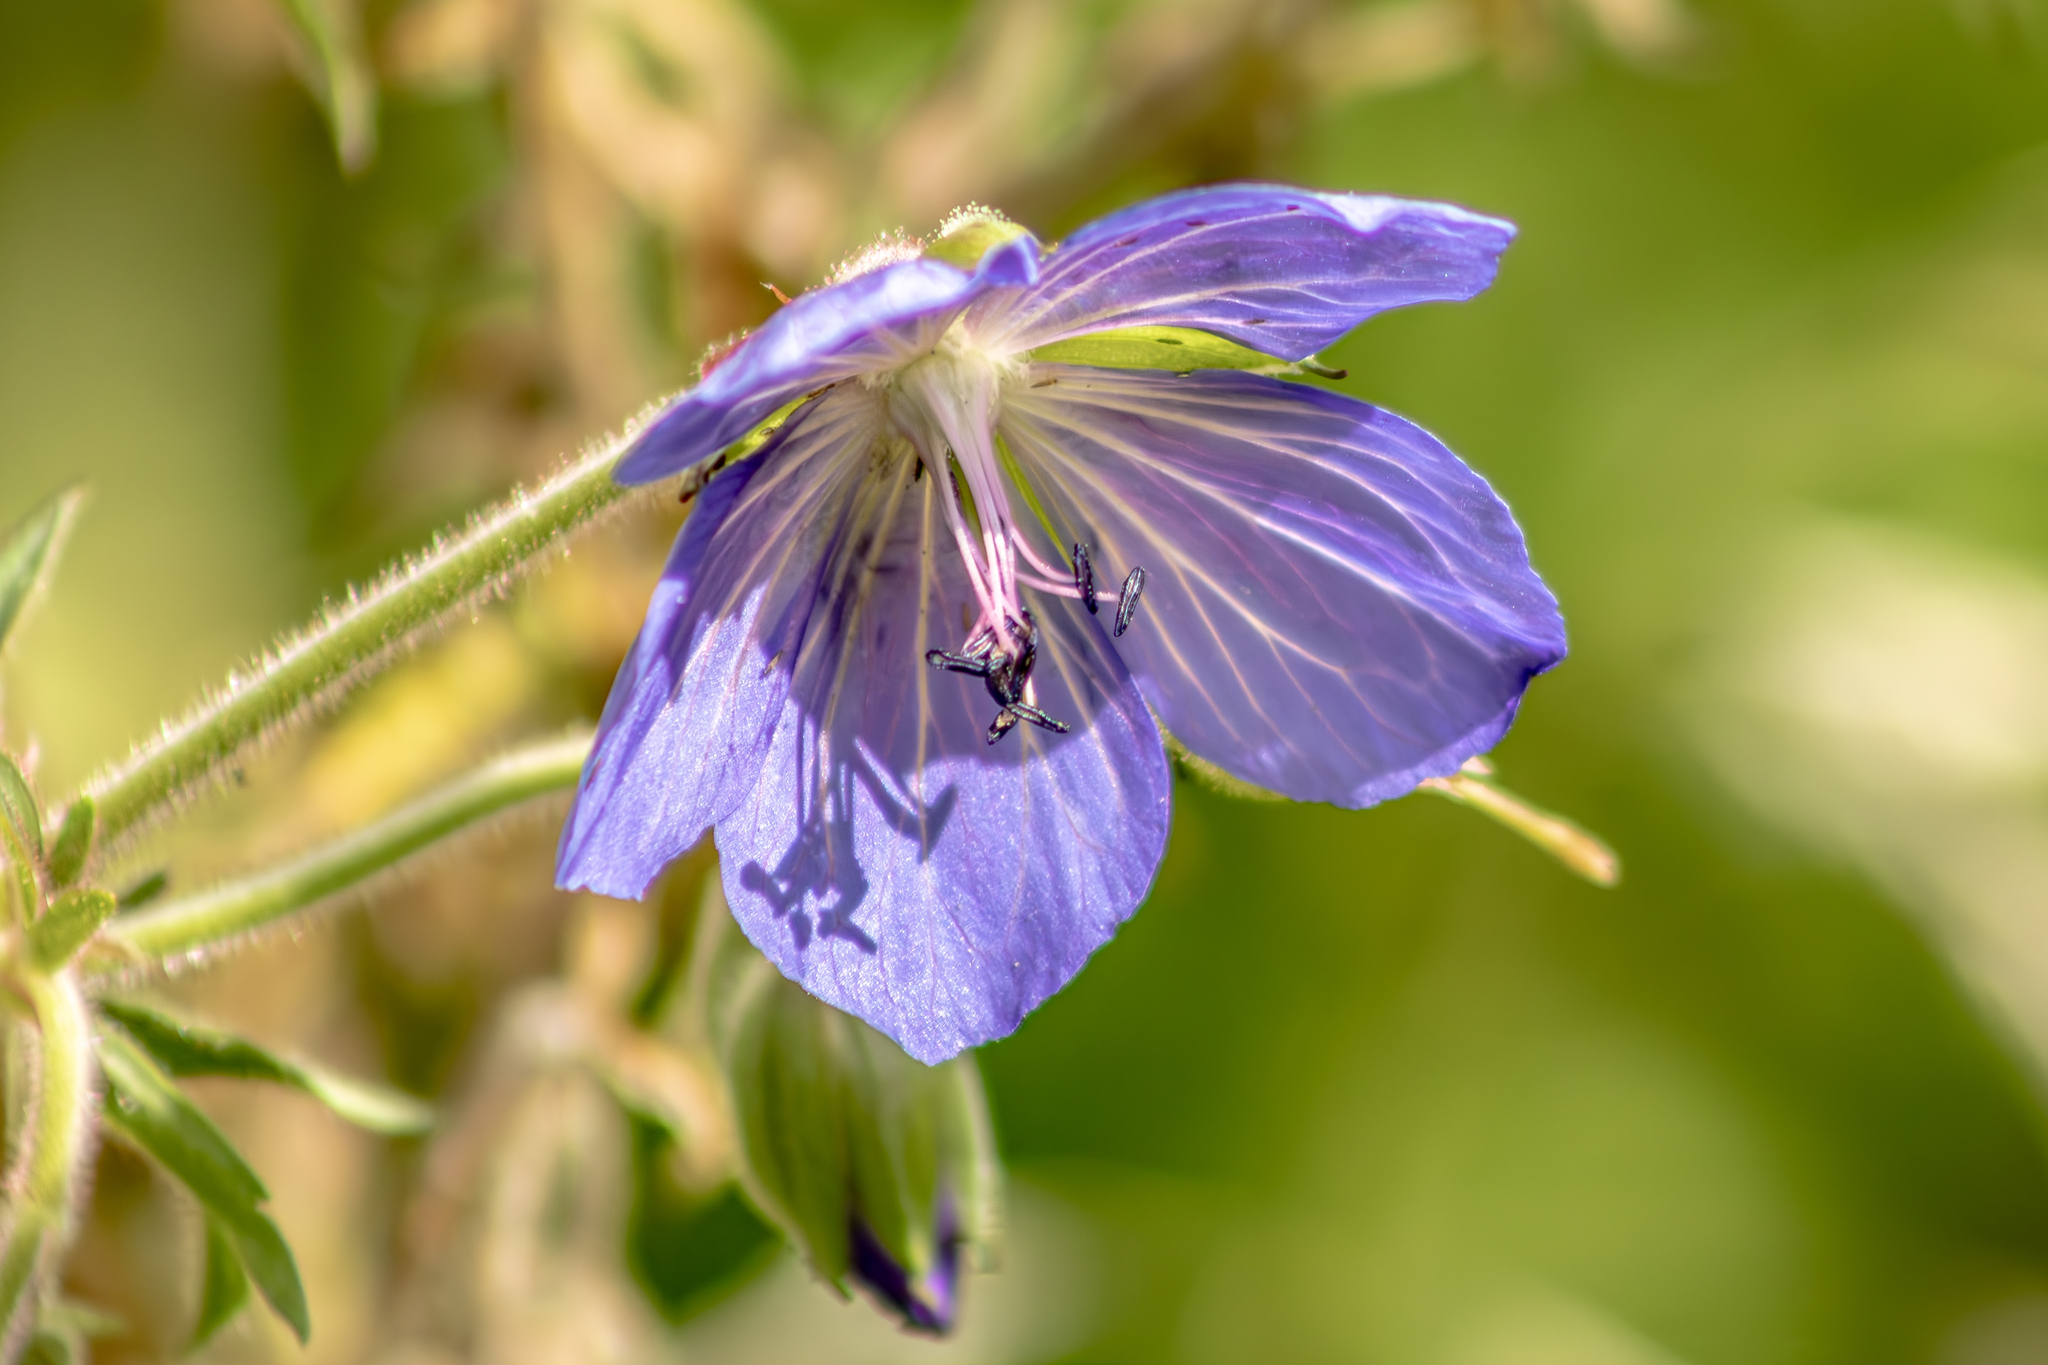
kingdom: Plantae
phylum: Tracheophyta
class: Magnoliopsida
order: Geraniales
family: Geraniaceae
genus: Geranium
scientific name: Geranium pratense
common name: Meadow crane's-bill
